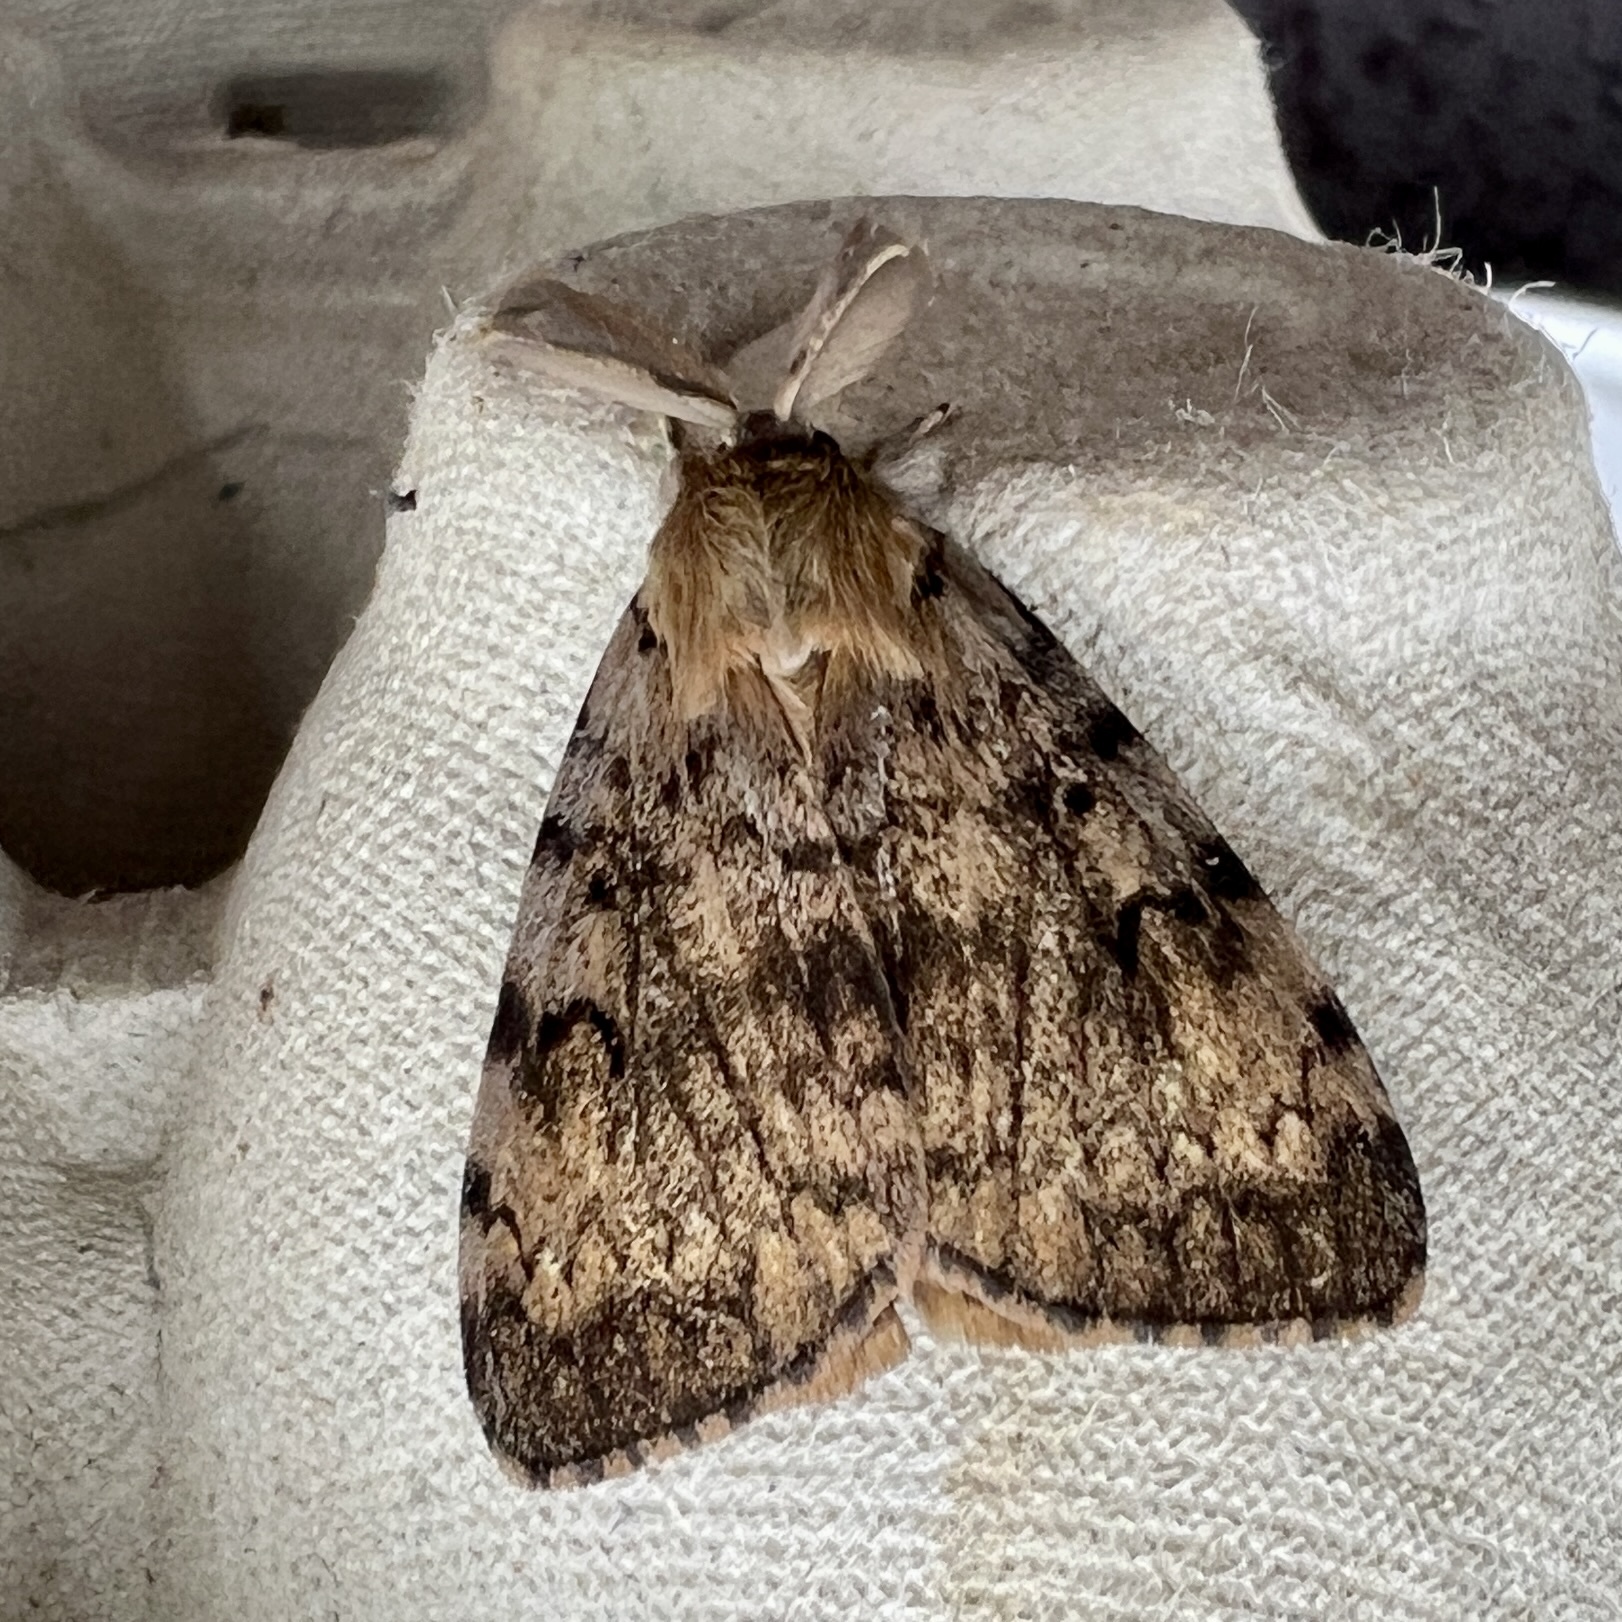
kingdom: Animalia
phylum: Arthropoda
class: Insecta
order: Lepidoptera
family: Erebidae
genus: Lymantria
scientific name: Lymantria dispar
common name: Gypsy moth
